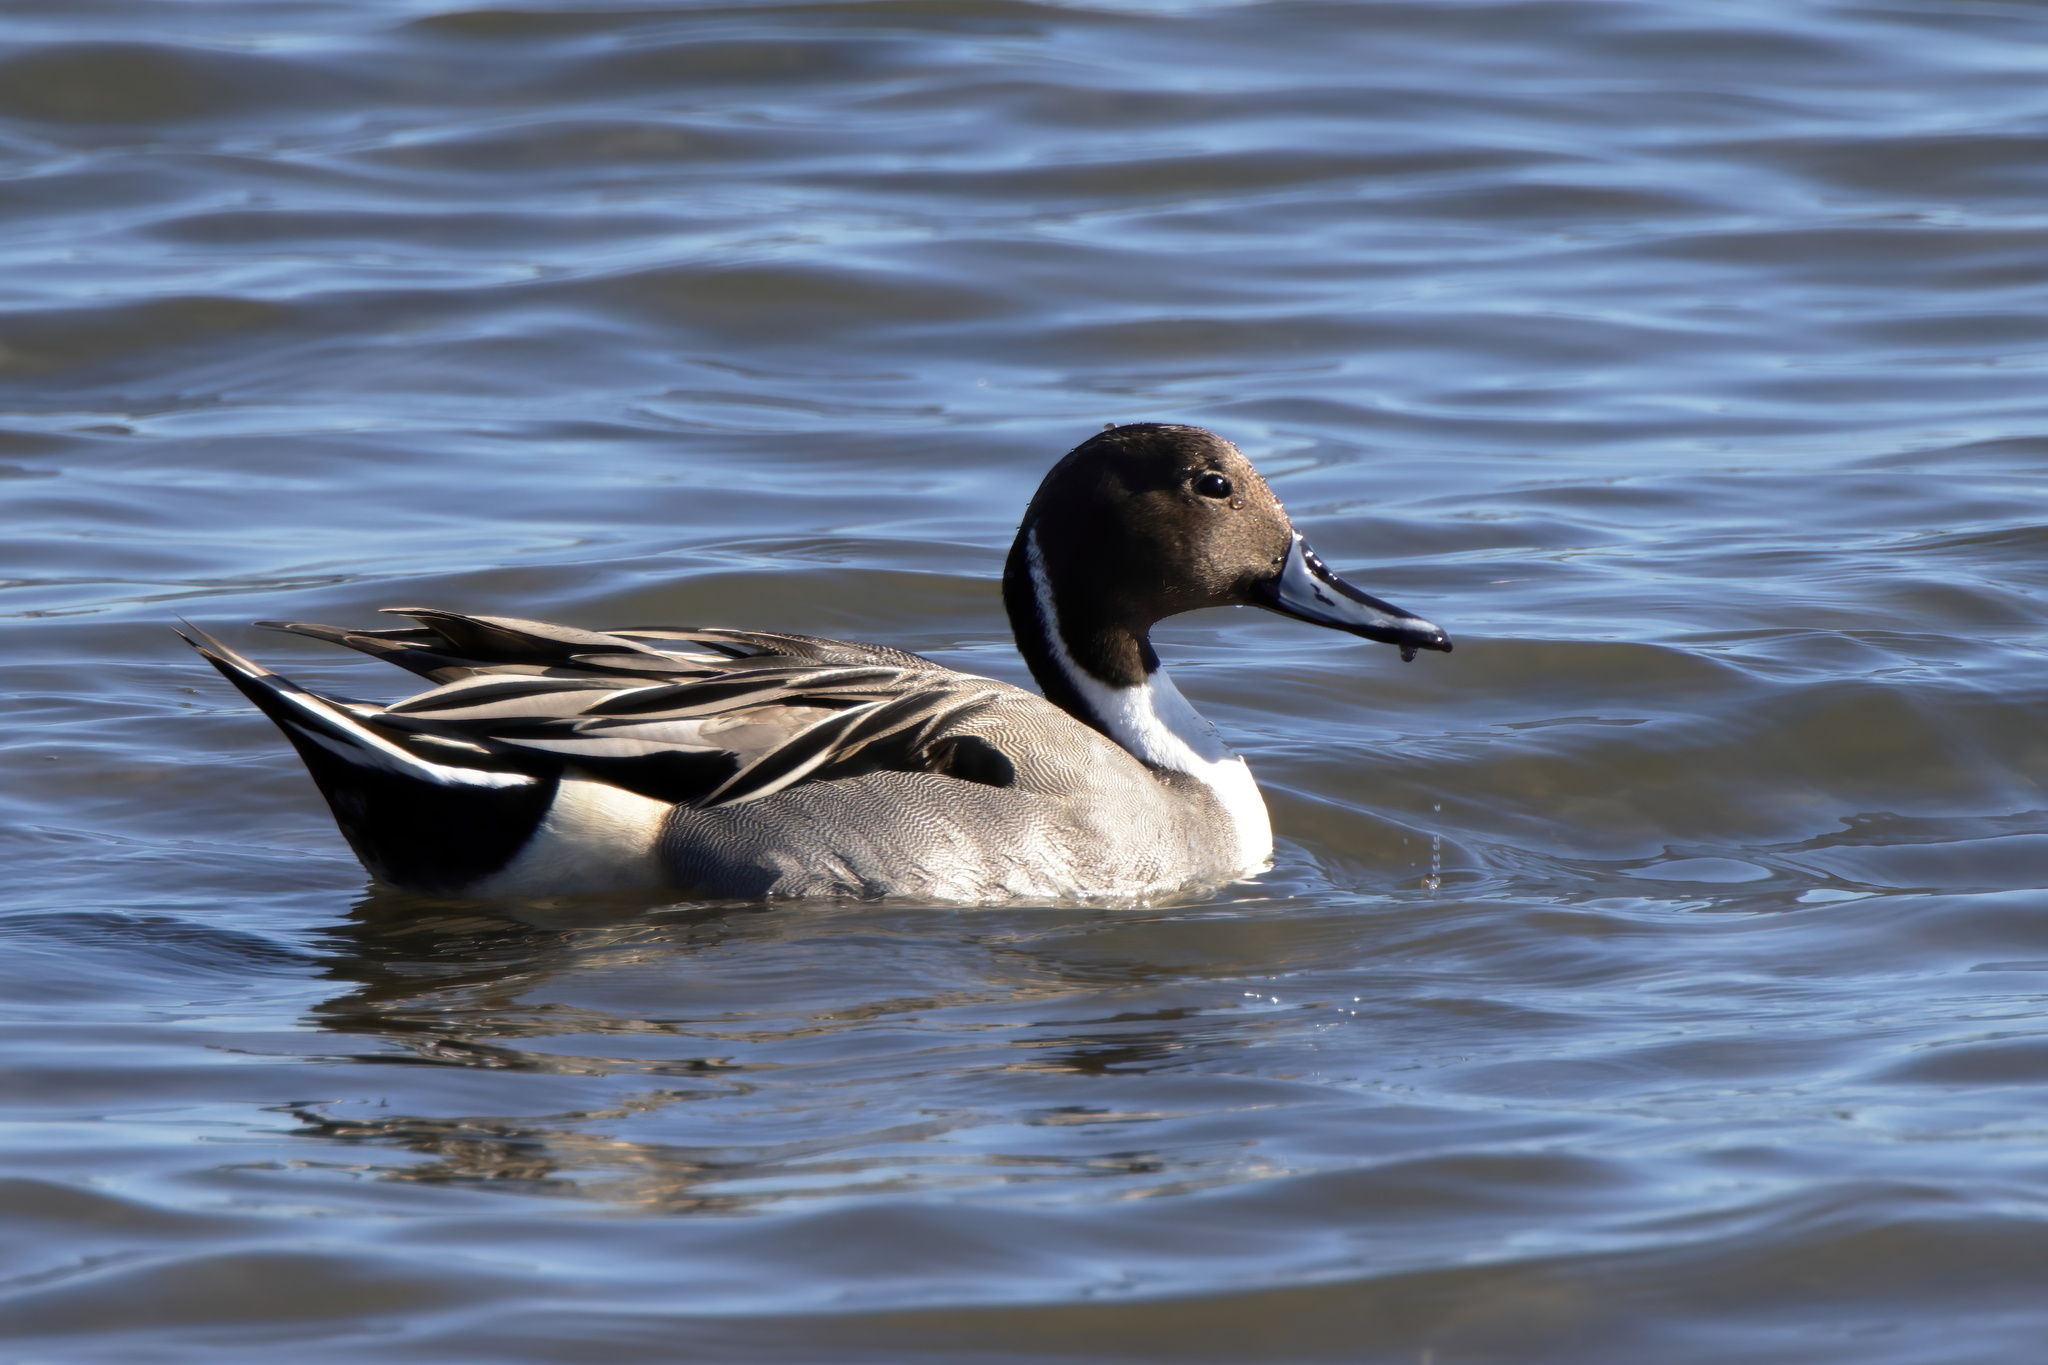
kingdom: Animalia
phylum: Chordata
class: Aves
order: Anseriformes
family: Anatidae
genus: Anas
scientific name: Anas acuta
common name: Northern pintail
